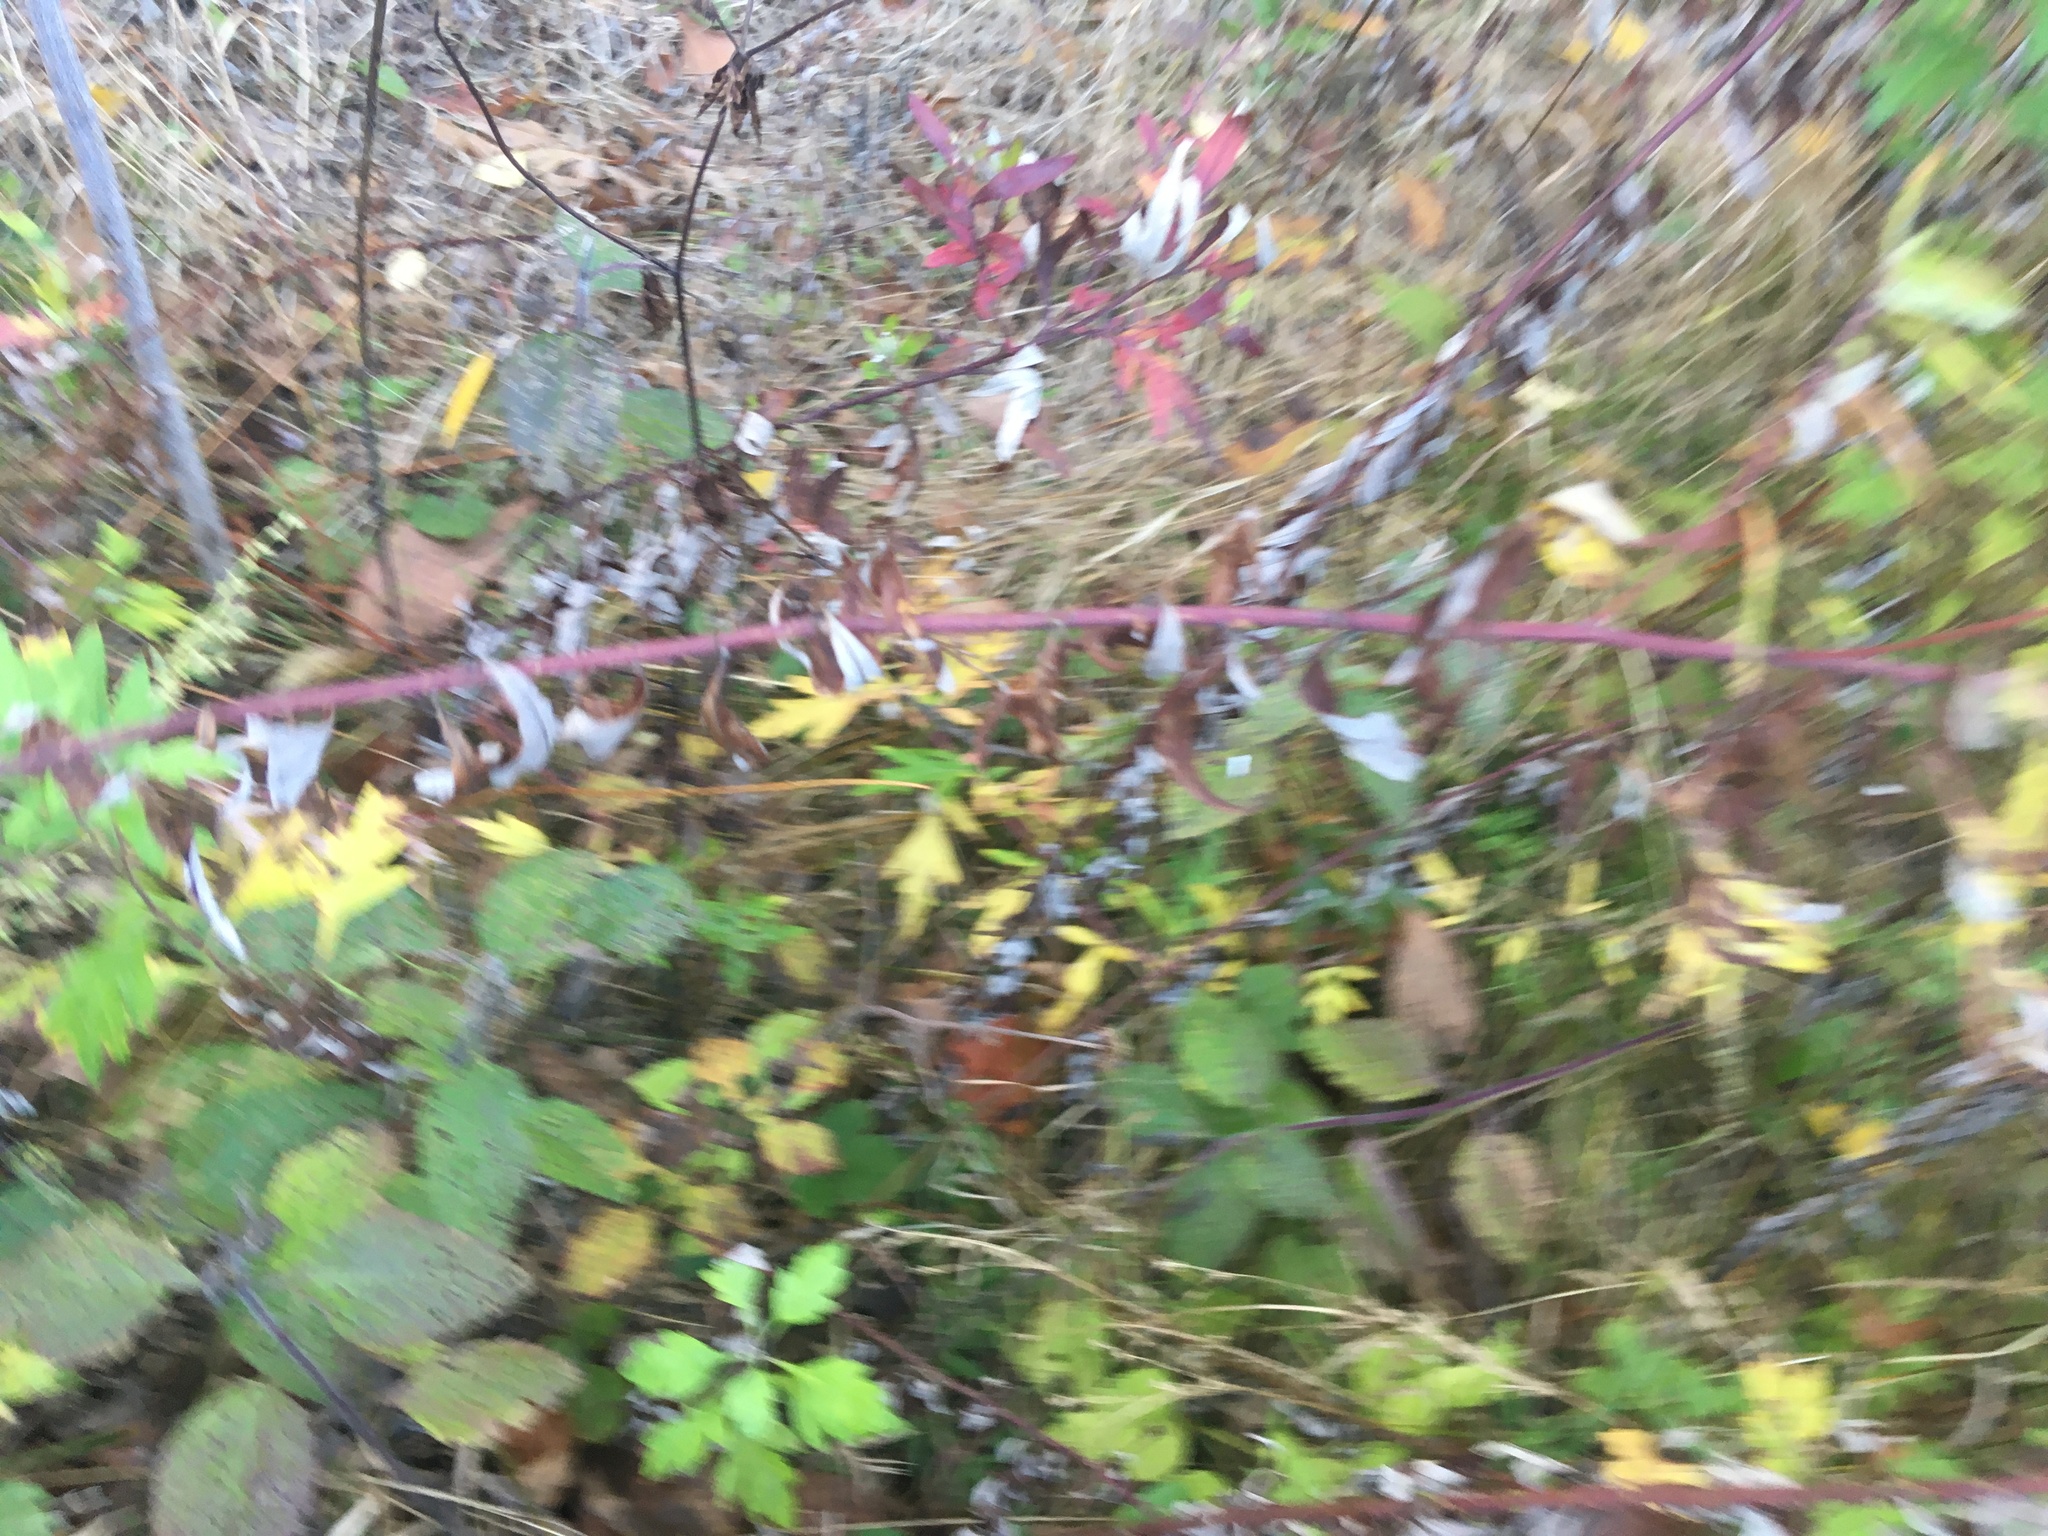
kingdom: Plantae
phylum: Tracheophyta
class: Magnoliopsida
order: Asterales
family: Asteraceae
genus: Artemisia
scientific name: Artemisia vulgaris
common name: Mugwort
